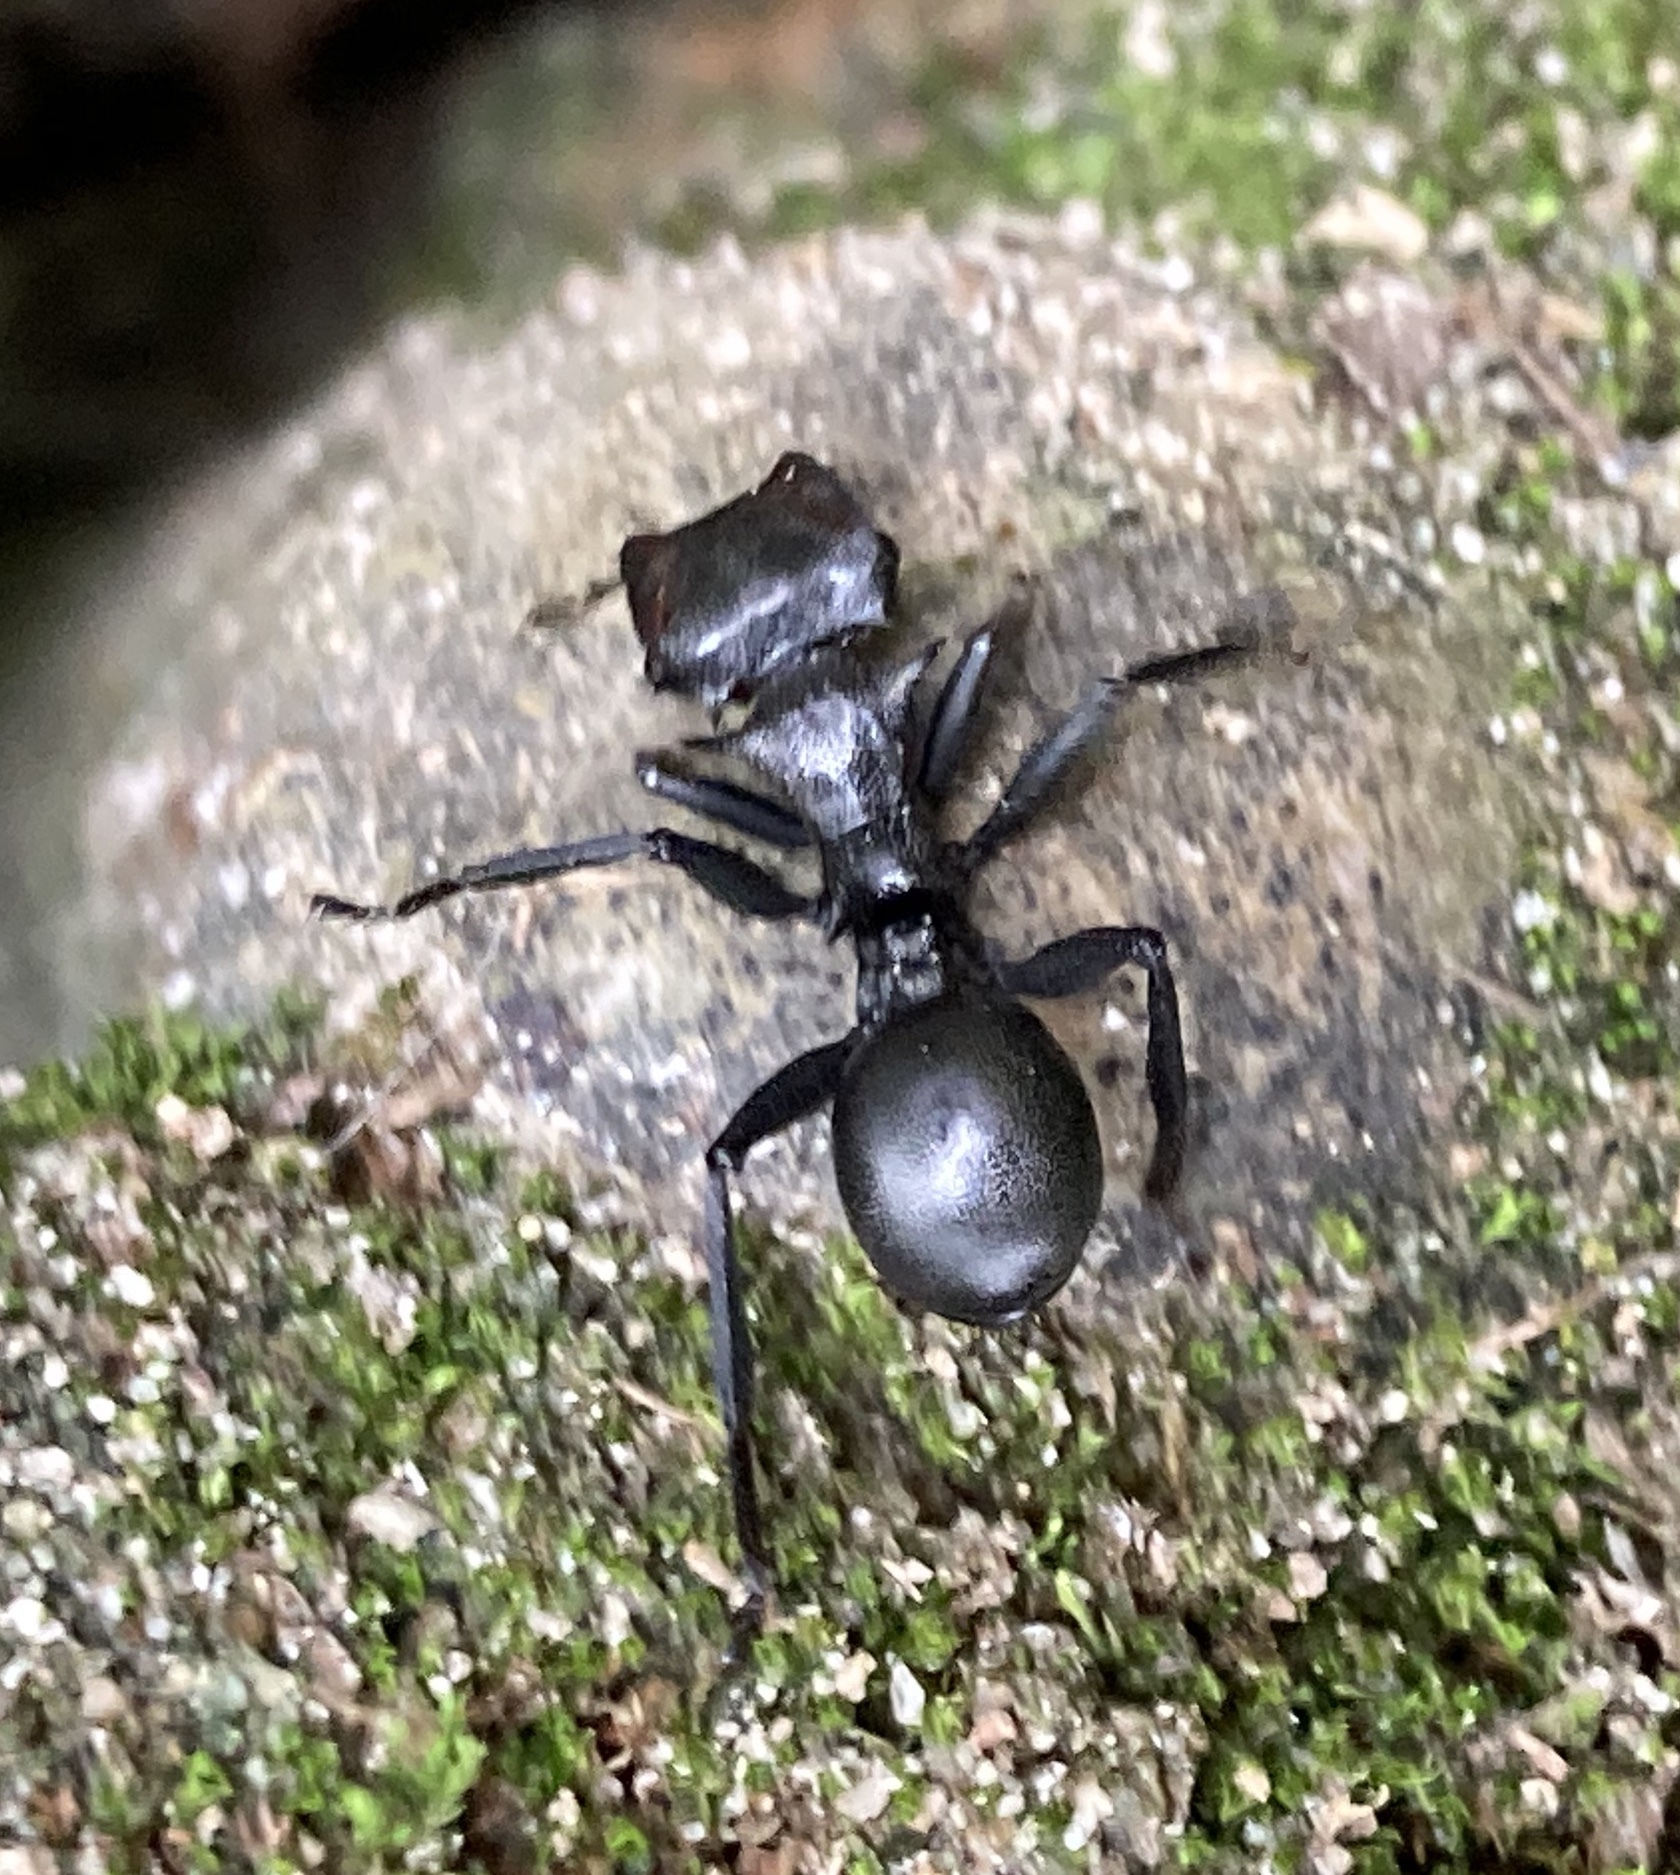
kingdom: Animalia
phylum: Arthropoda
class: Insecta
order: Hymenoptera
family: Formicidae
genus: Cephalotes
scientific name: Cephalotes atratus
